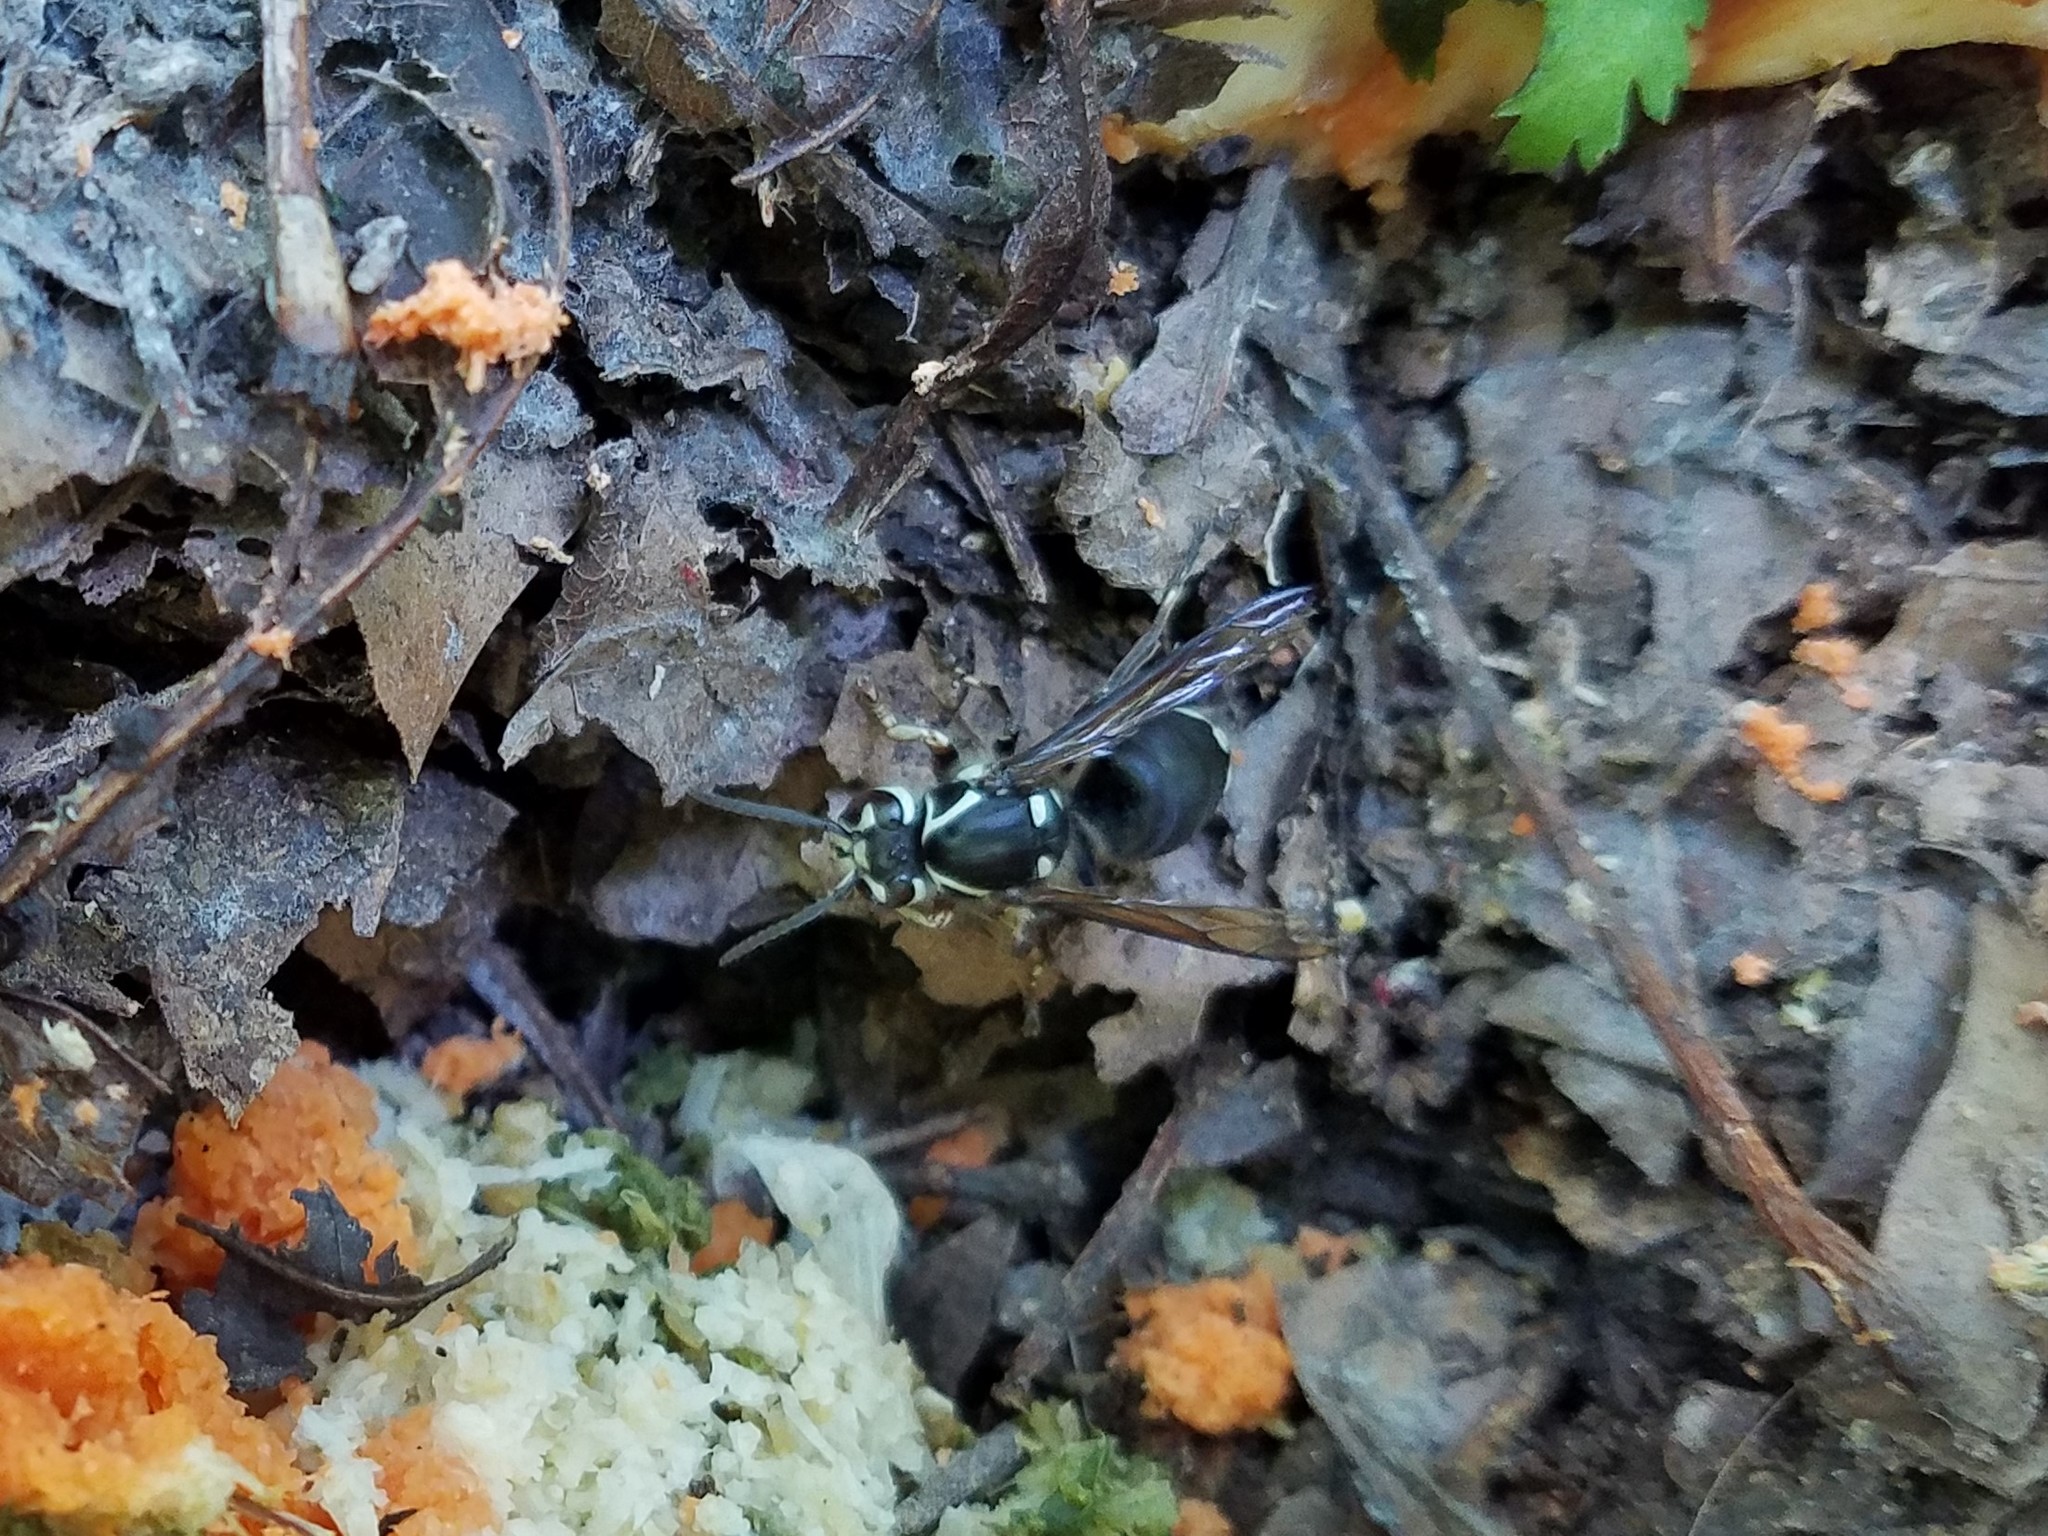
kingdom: Animalia
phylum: Arthropoda
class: Insecta
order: Hymenoptera
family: Vespidae
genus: Dolichovespula
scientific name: Dolichovespula maculata
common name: Bald-faced hornet
